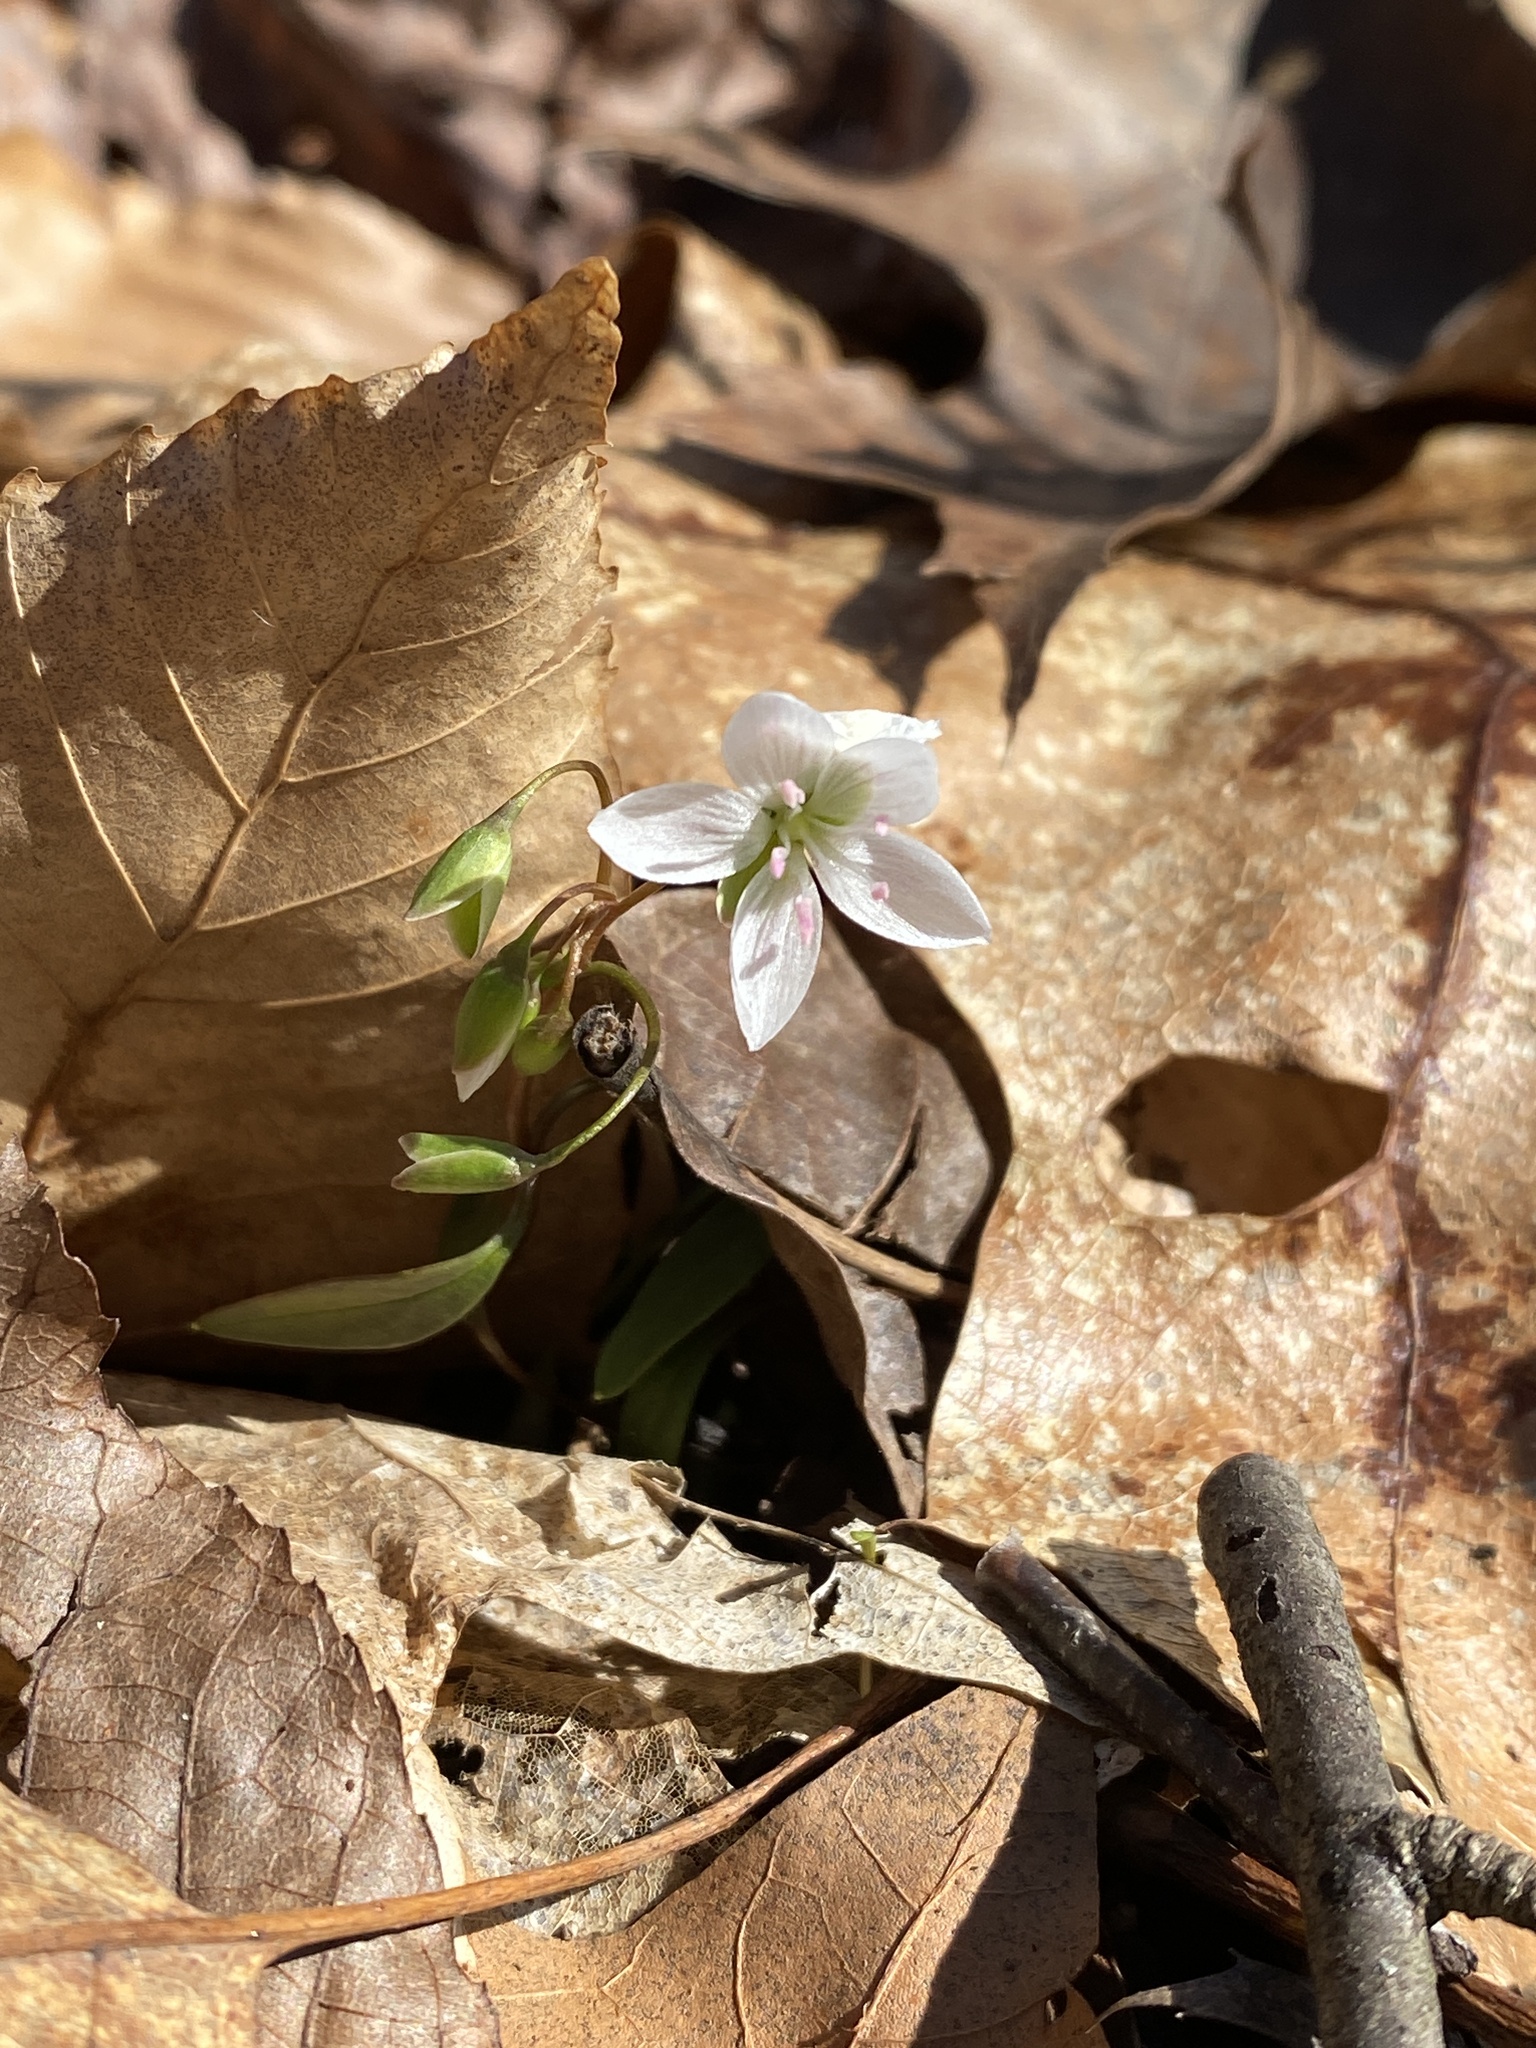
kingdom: Plantae
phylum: Tracheophyta
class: Magnoliopsida
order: Caryophyllales
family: Montiaceae
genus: Claytonia
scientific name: Claytonia caroliniana
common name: Carolina spring beauty
